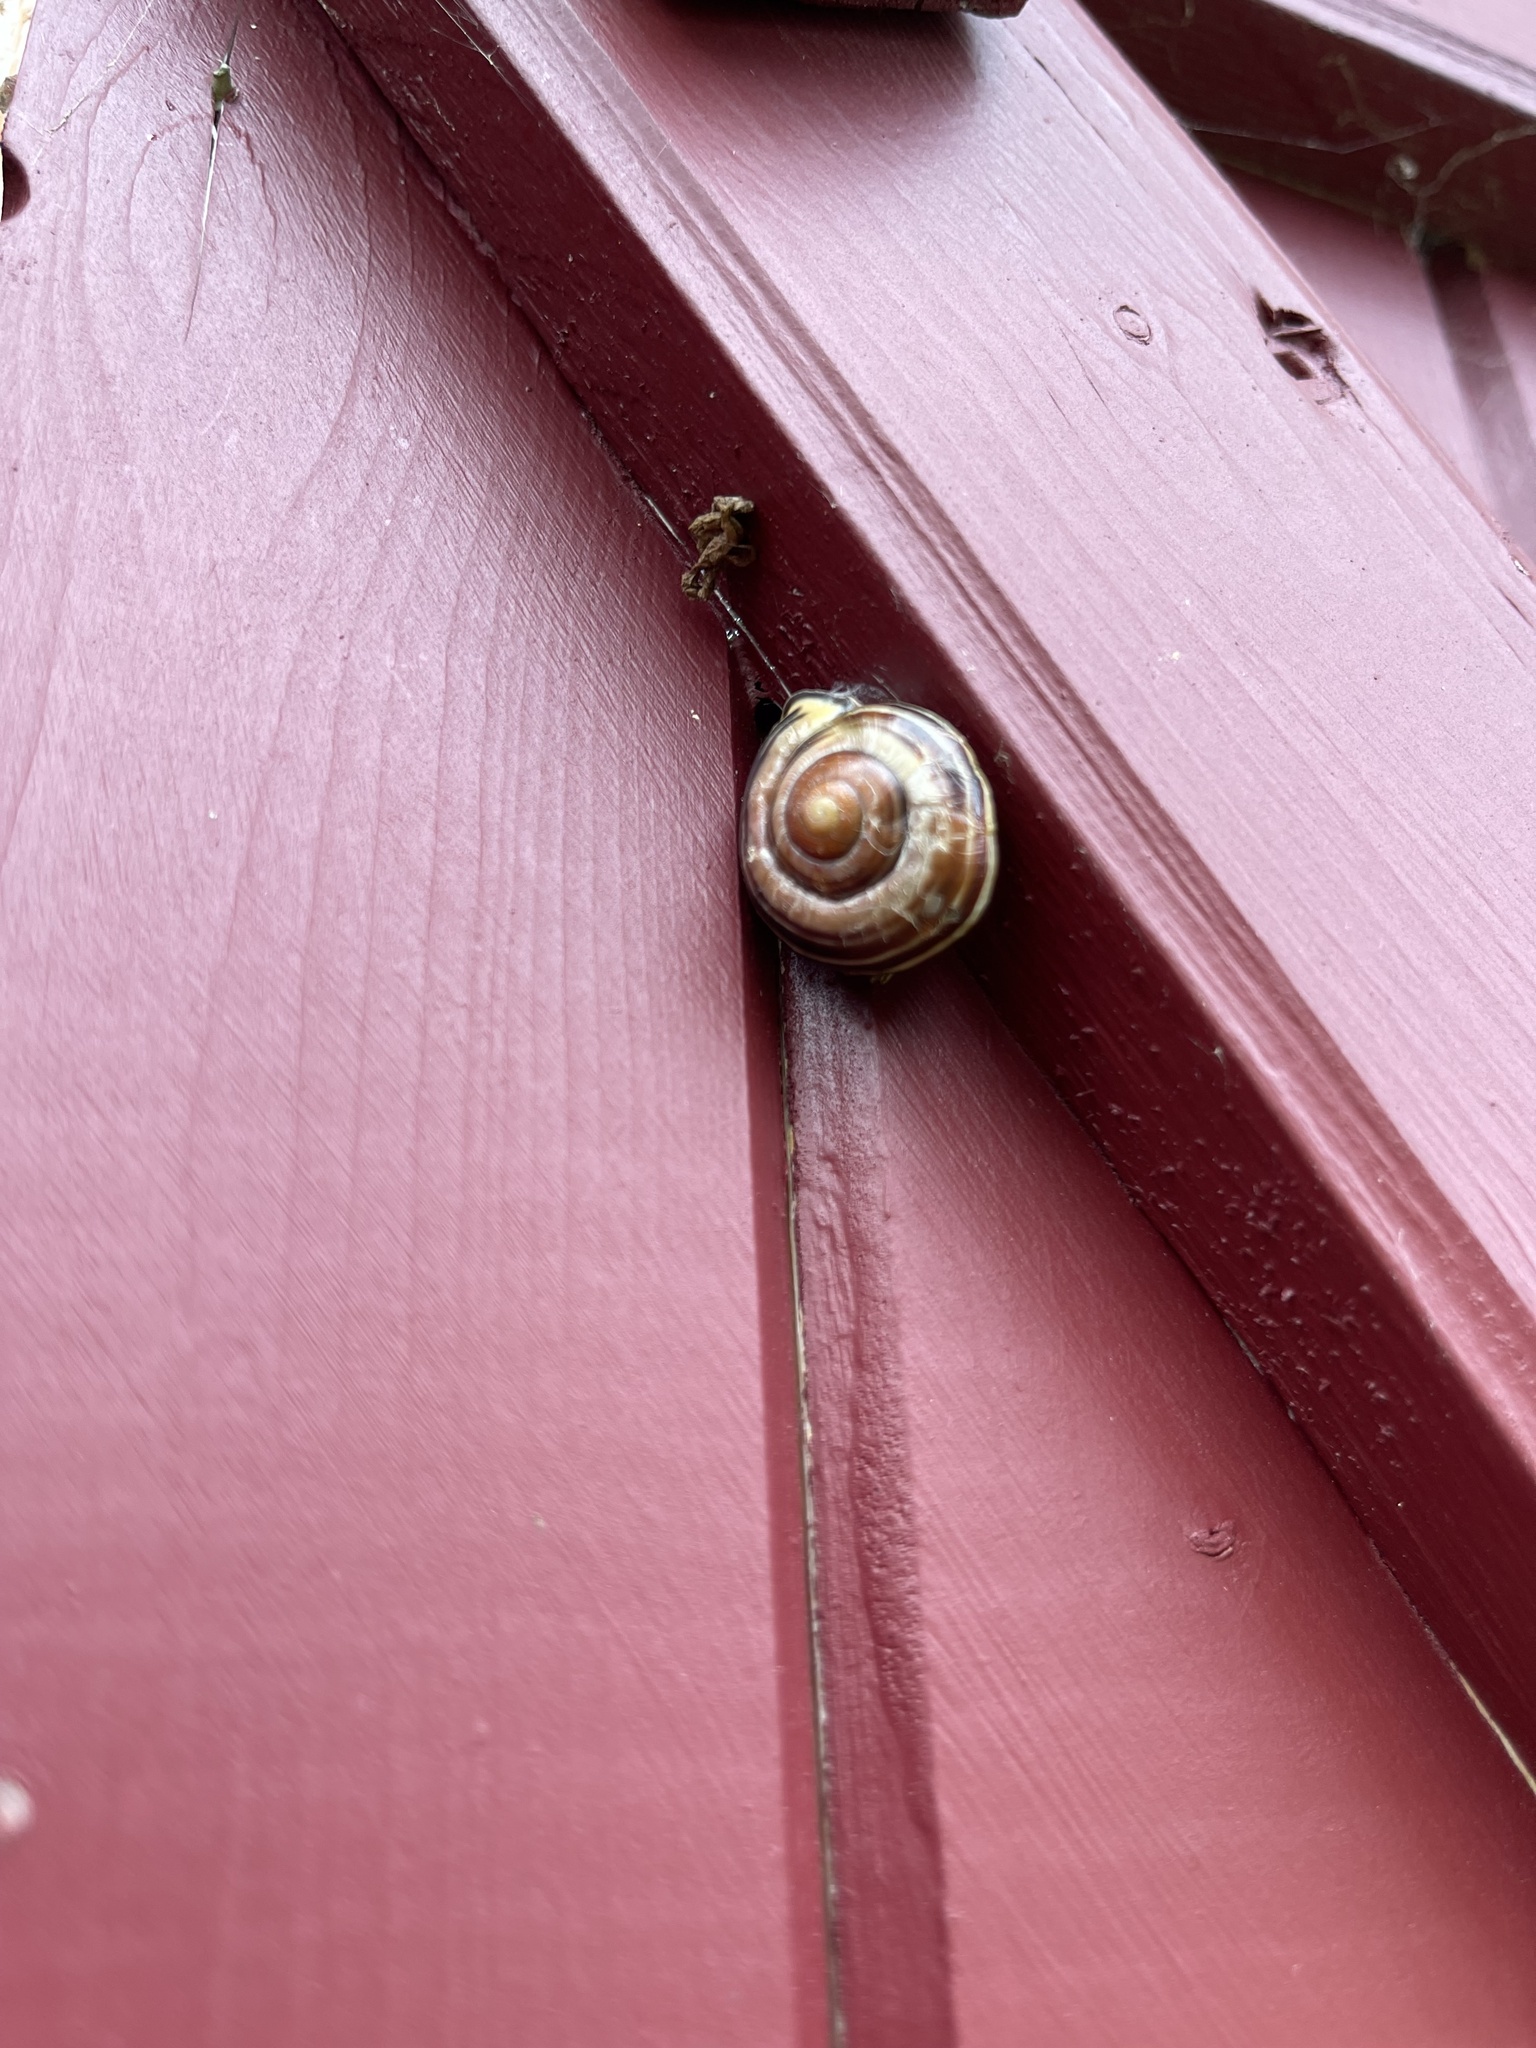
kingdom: Animalia
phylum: Mollusca
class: Gastropoda
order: Stylommatophora
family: Helicidae
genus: Cepaea
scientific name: Cepaea nemoralis
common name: Grovesnail
